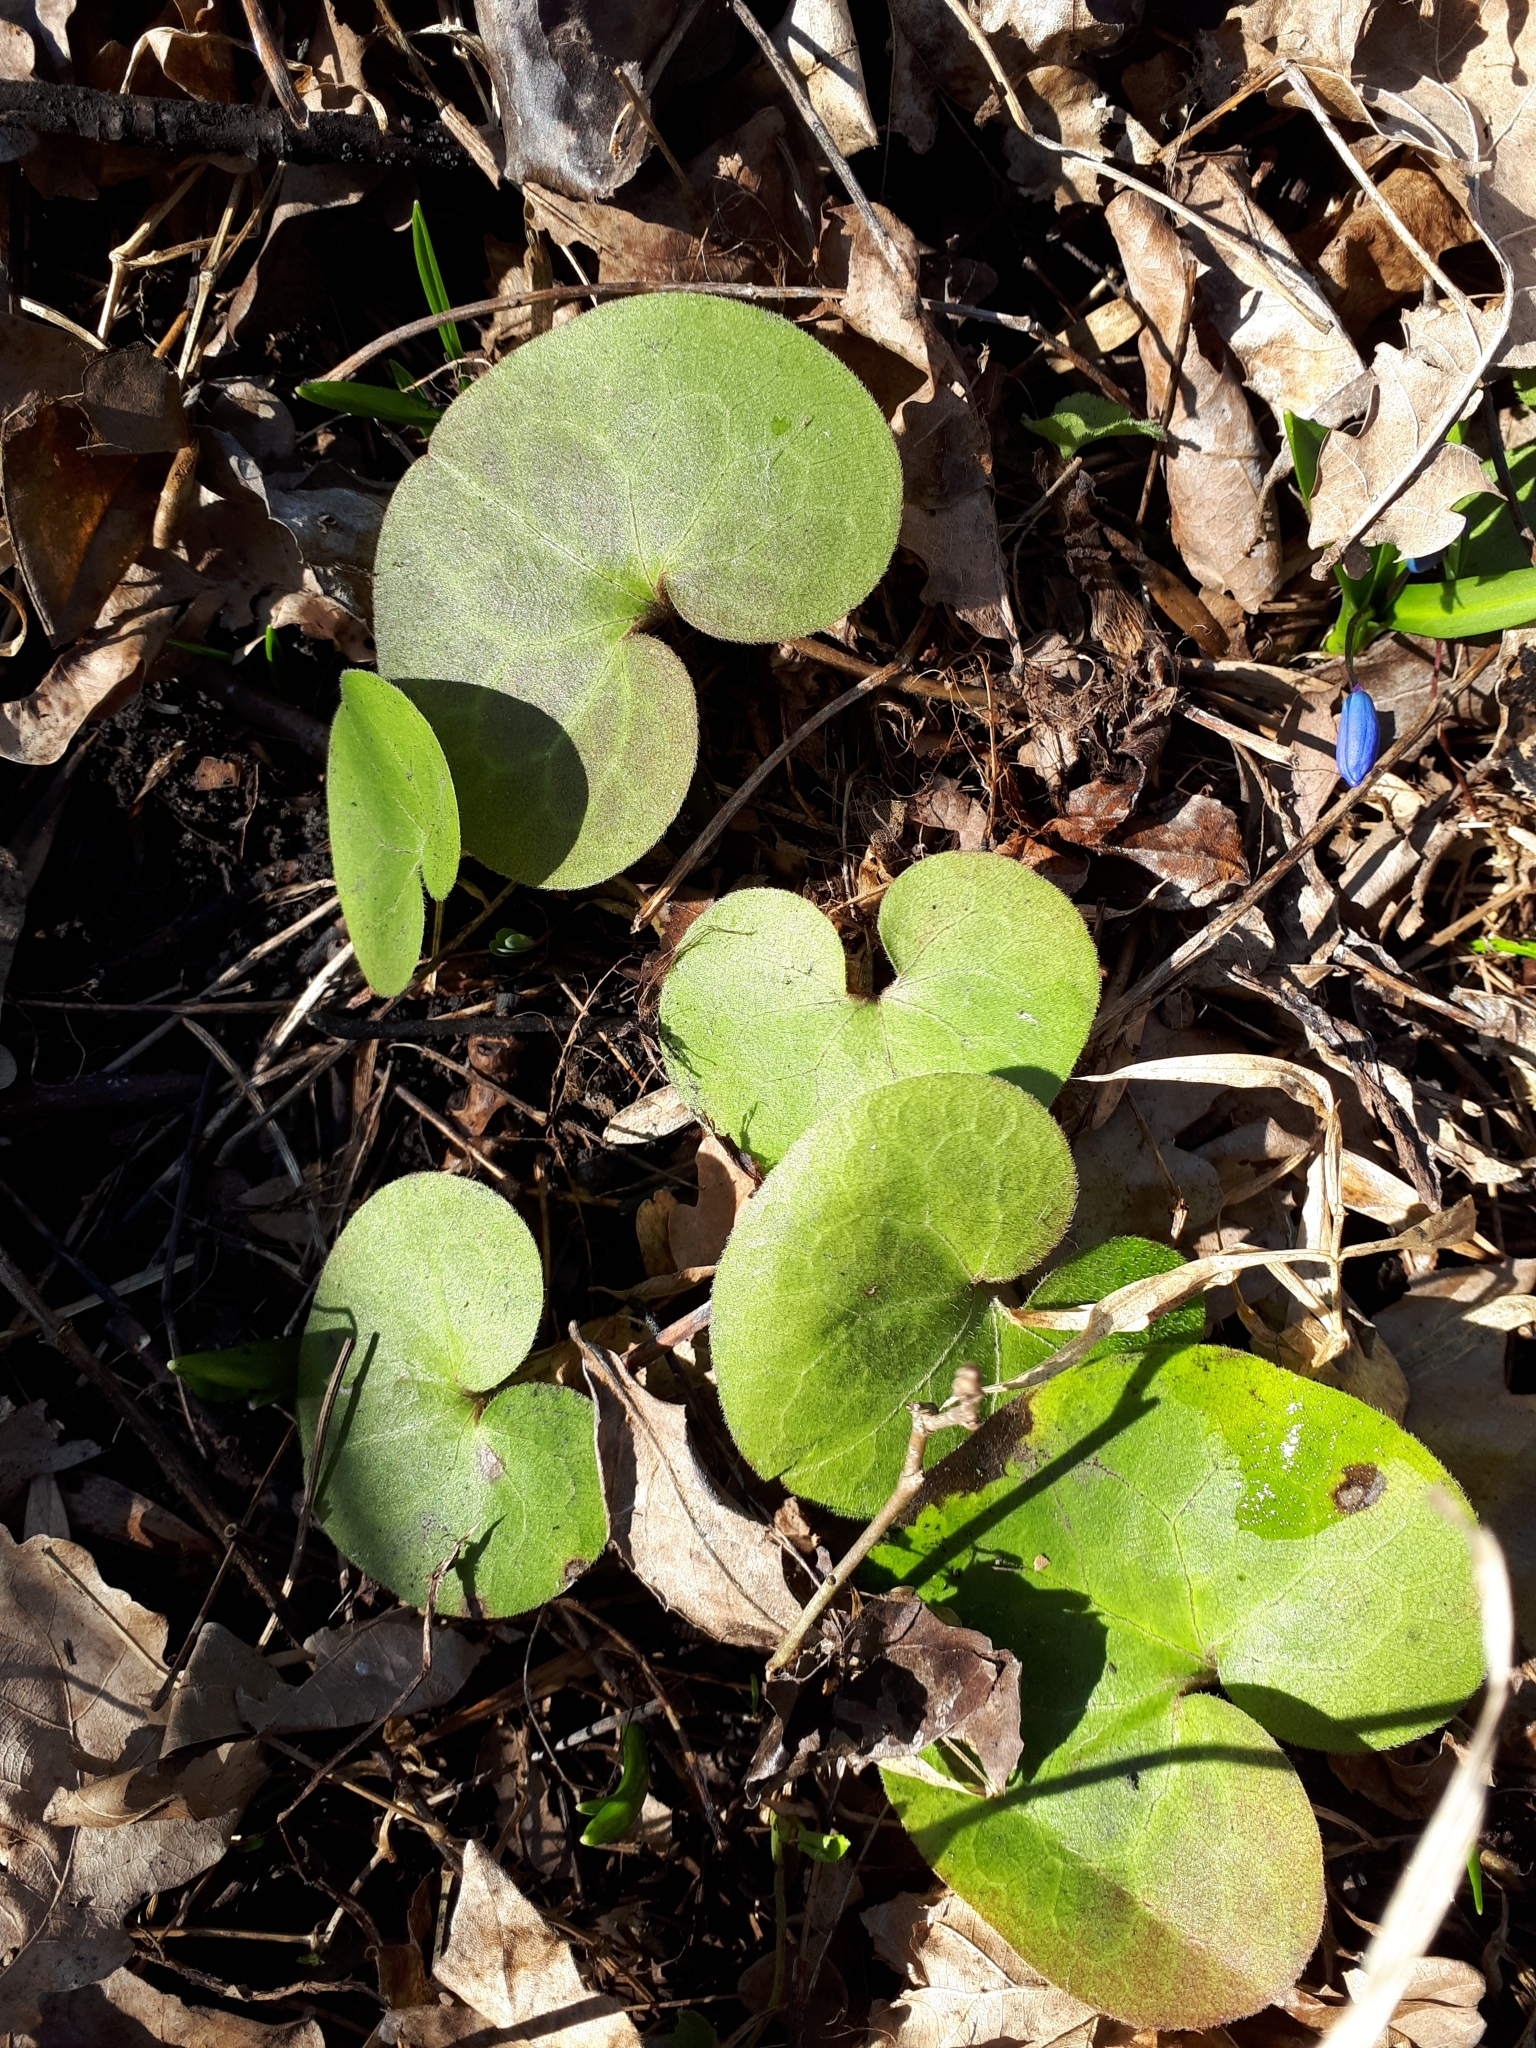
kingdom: Plantae
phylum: Tracheophyta
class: Magnoliopsida
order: Piperales
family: Aristolochiaceae
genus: Asarum
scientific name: Asarum europaeum
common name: Asarabacca
